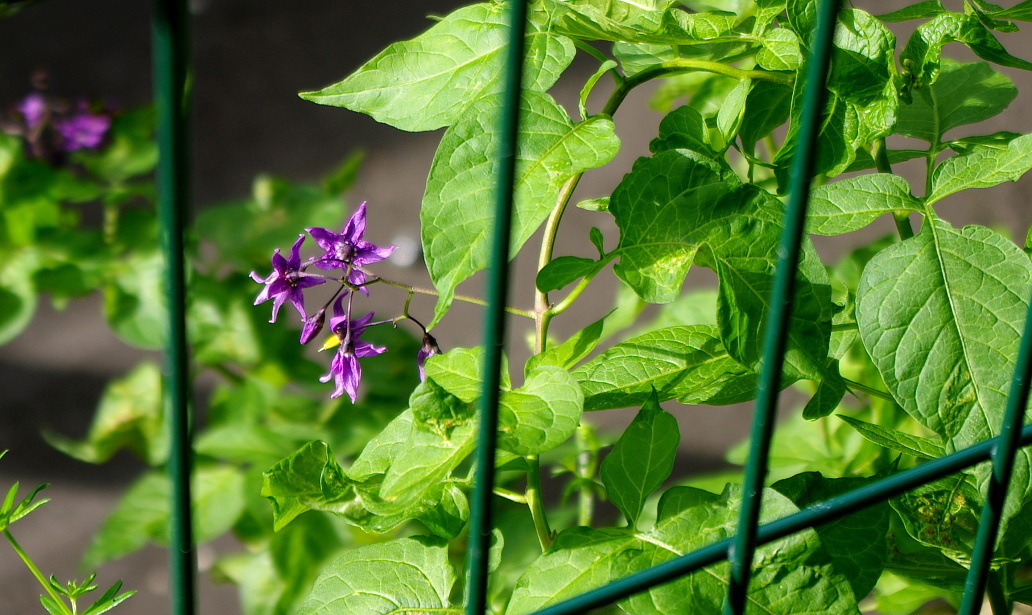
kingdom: Plantae
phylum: Tracheophyta
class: Magnoliopsida
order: Solanales
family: Solanaceae
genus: Solanum
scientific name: Solanum dulcamara
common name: Climbing nightshade
